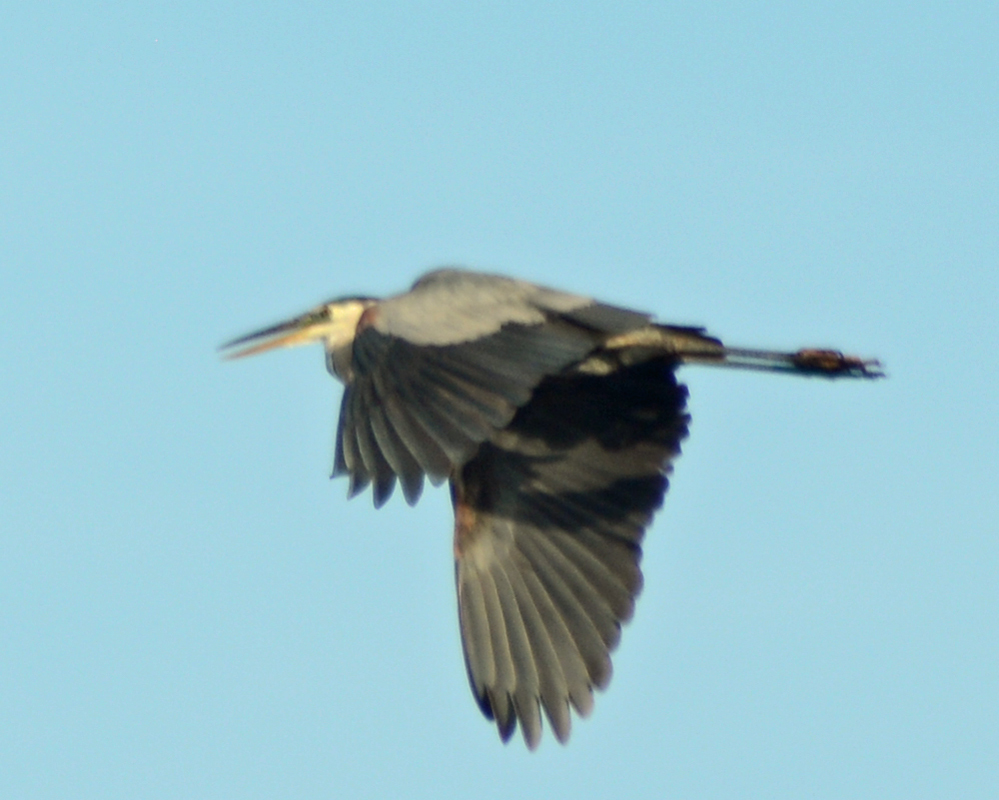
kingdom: Animalia
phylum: Chordata
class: Aves
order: Pelecaniformes
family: Ardeidae
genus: Ardea
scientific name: Ardea herodias
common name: Great blue heron
